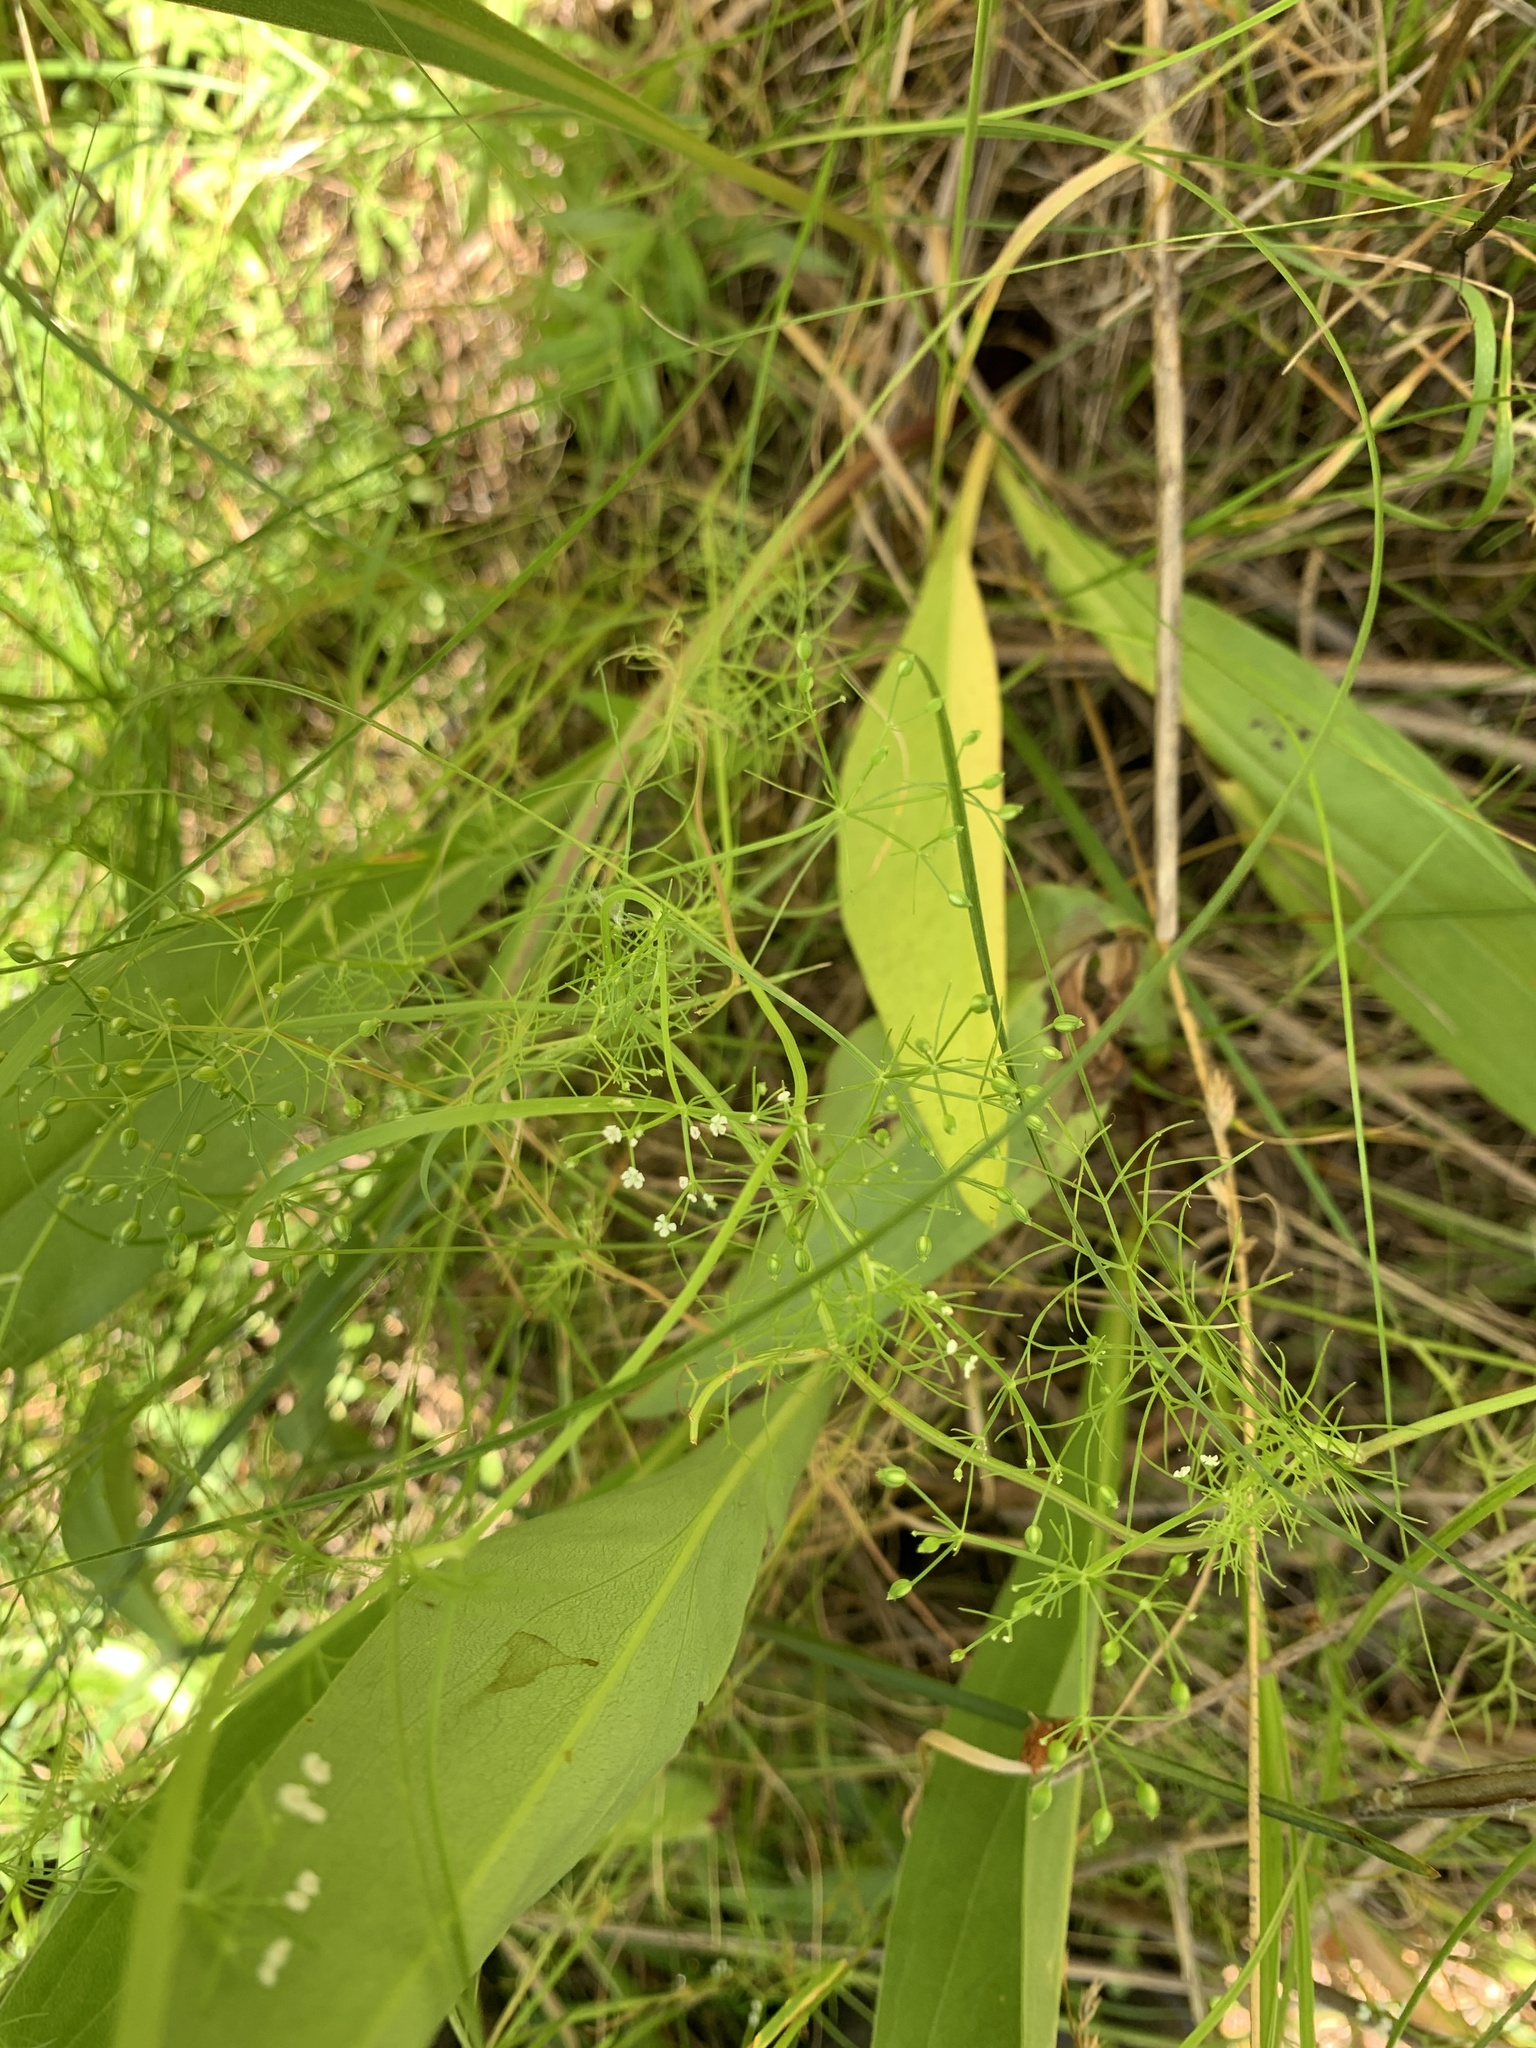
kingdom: Plantae
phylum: Tracheophyta
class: Magnoliopsida
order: Apiales
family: Apiaceae
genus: Ptilimnium
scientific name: Ptilimnium capillaceum
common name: Herbwilliam
